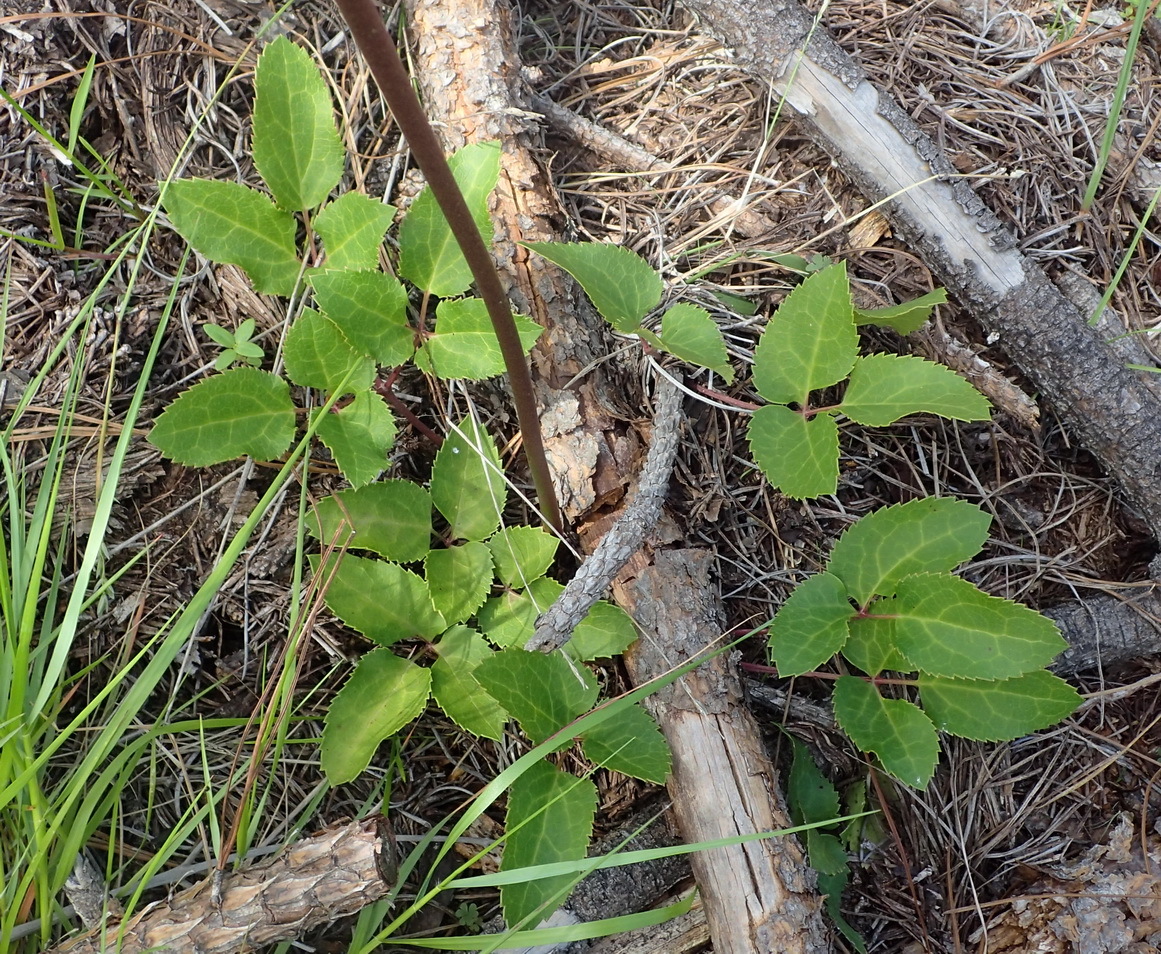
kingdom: Plantae
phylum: Tracheophyta
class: Magnoliopsida
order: Ranunculales
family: Ranunculaceae
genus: Knowltonia
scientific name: Knowltonia cordata
